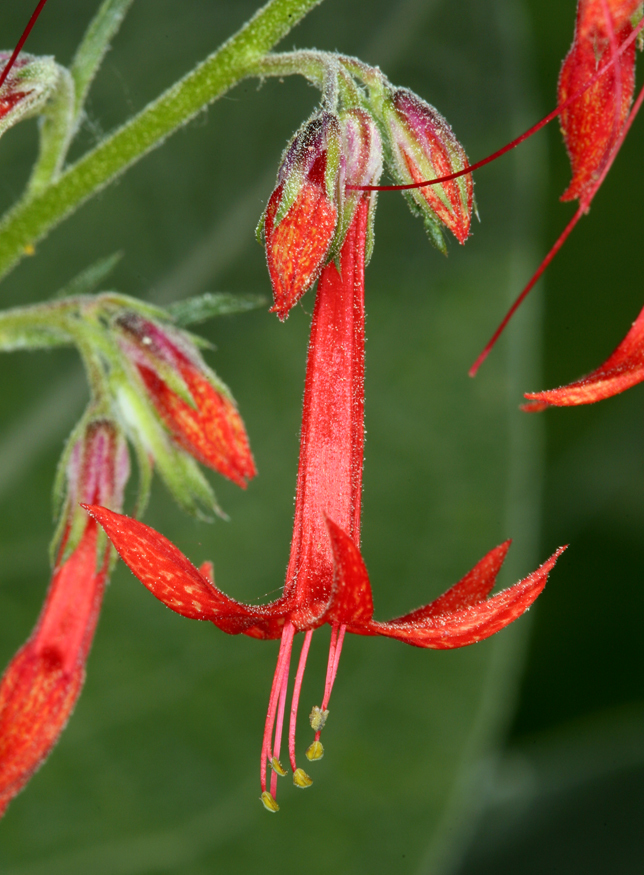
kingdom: Plantae
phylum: Tracheophyta
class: Magnoliopsida
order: Ericales
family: Polemoniaceae
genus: Ipomopsis
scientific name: Ipomopsis aggregata
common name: Scarlet gilia
